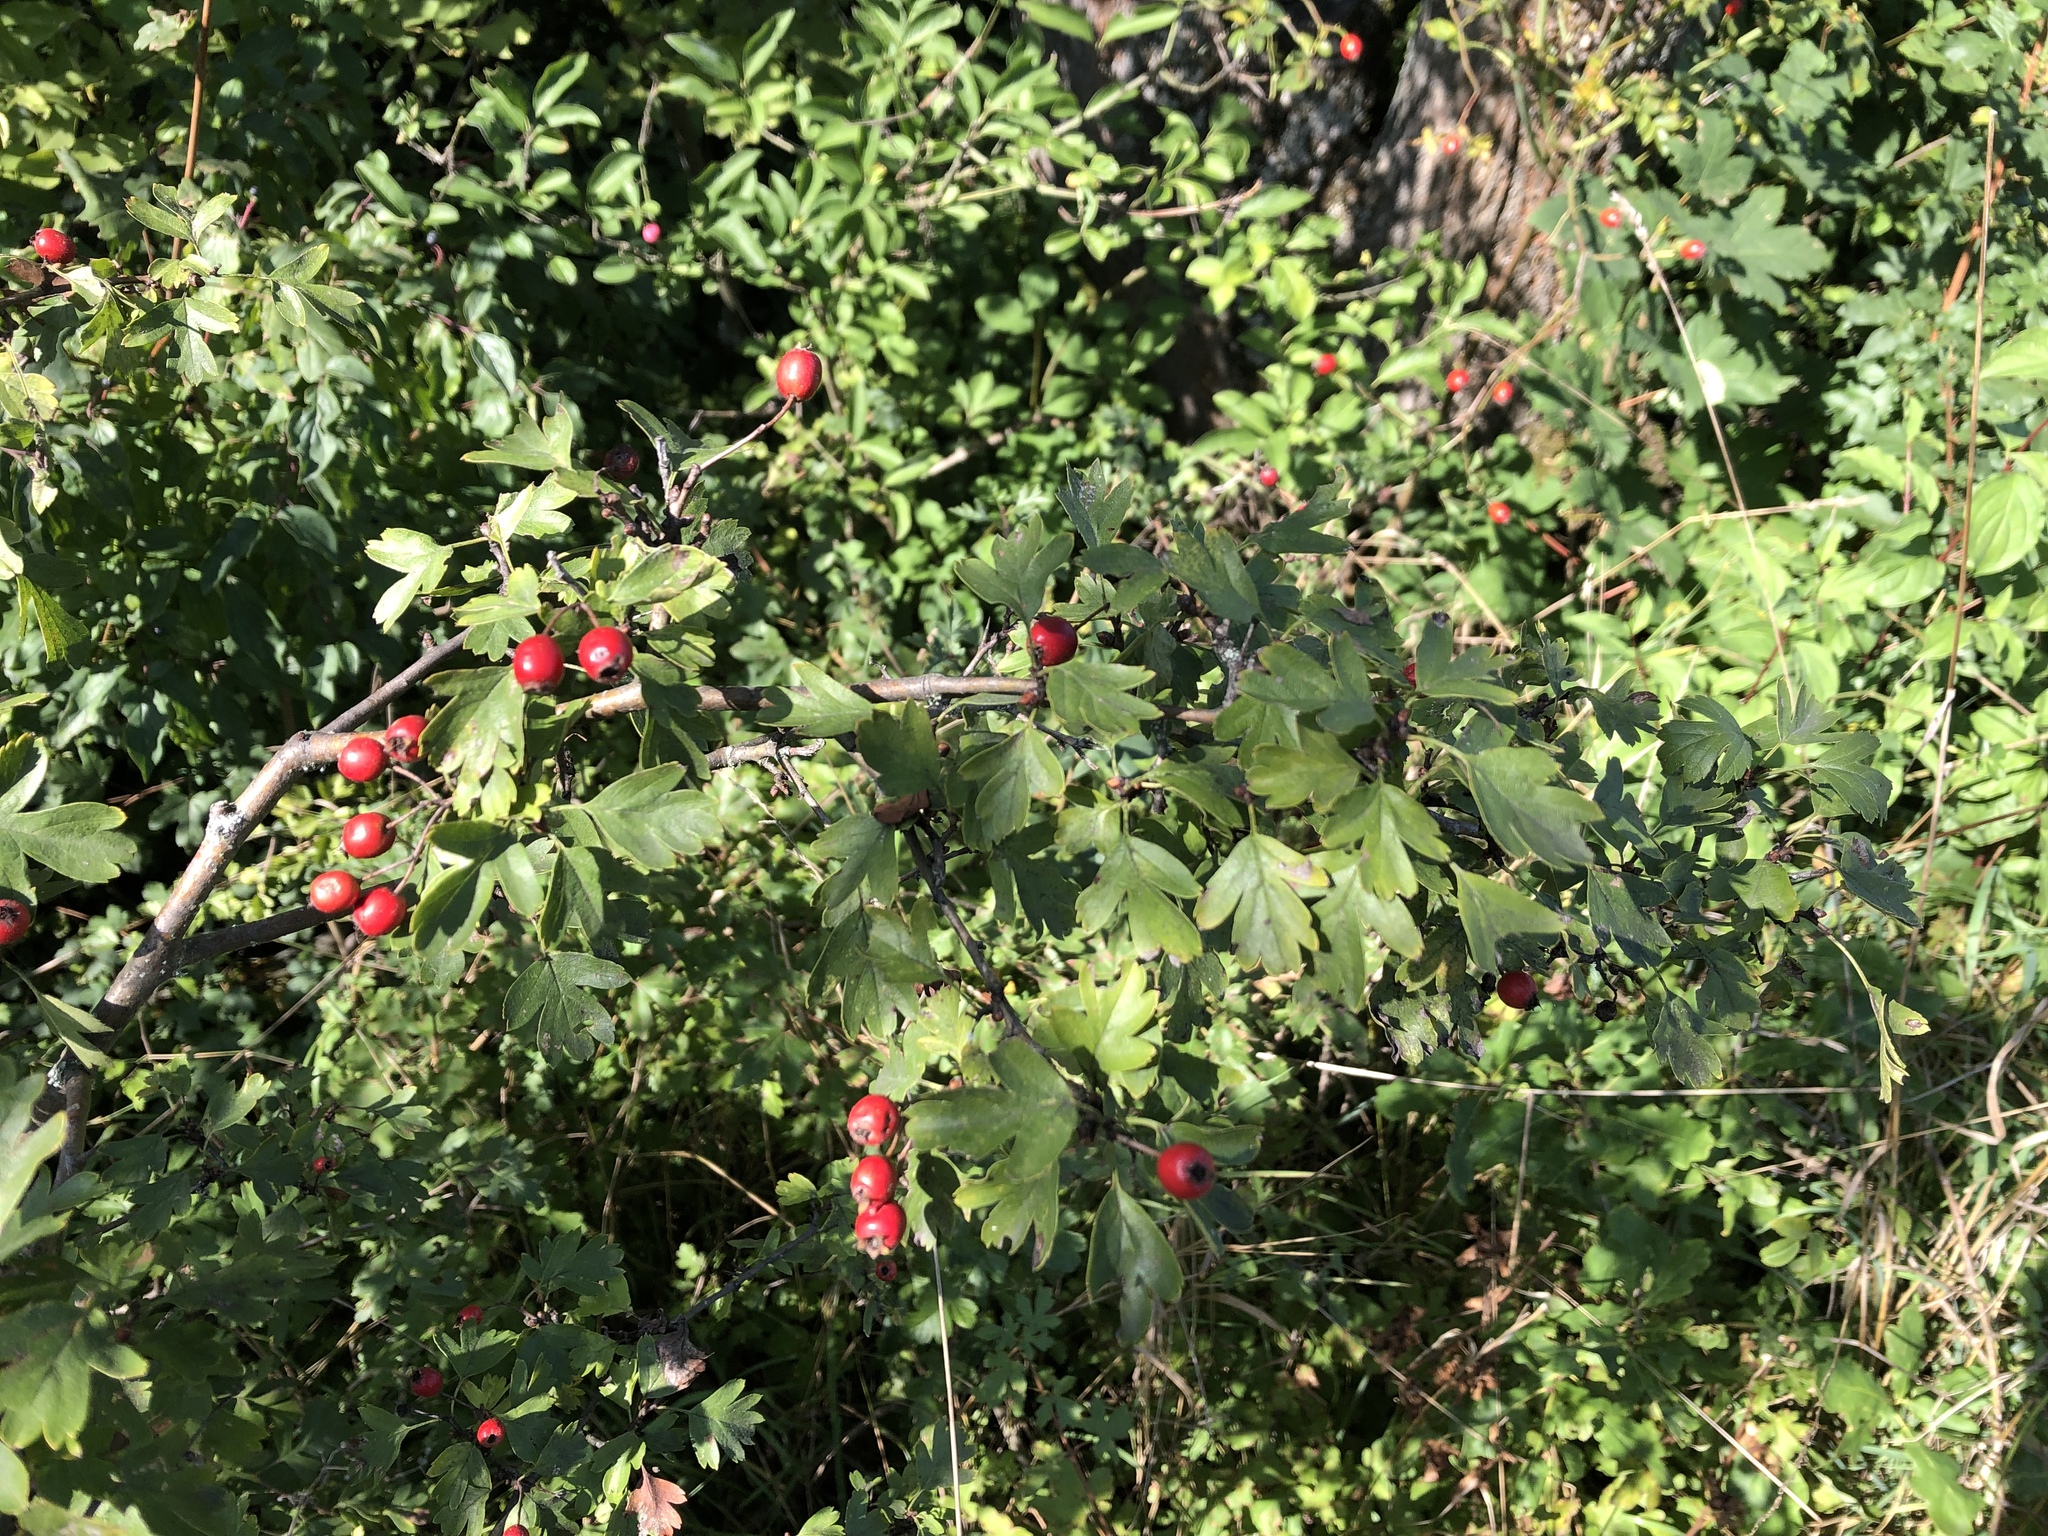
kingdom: Plantae
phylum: Tracheophyta
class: Magnoliopsida
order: Rosales
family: Rosaceae
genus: Crataegus
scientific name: Crataegus monogyna
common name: Hawthorn
